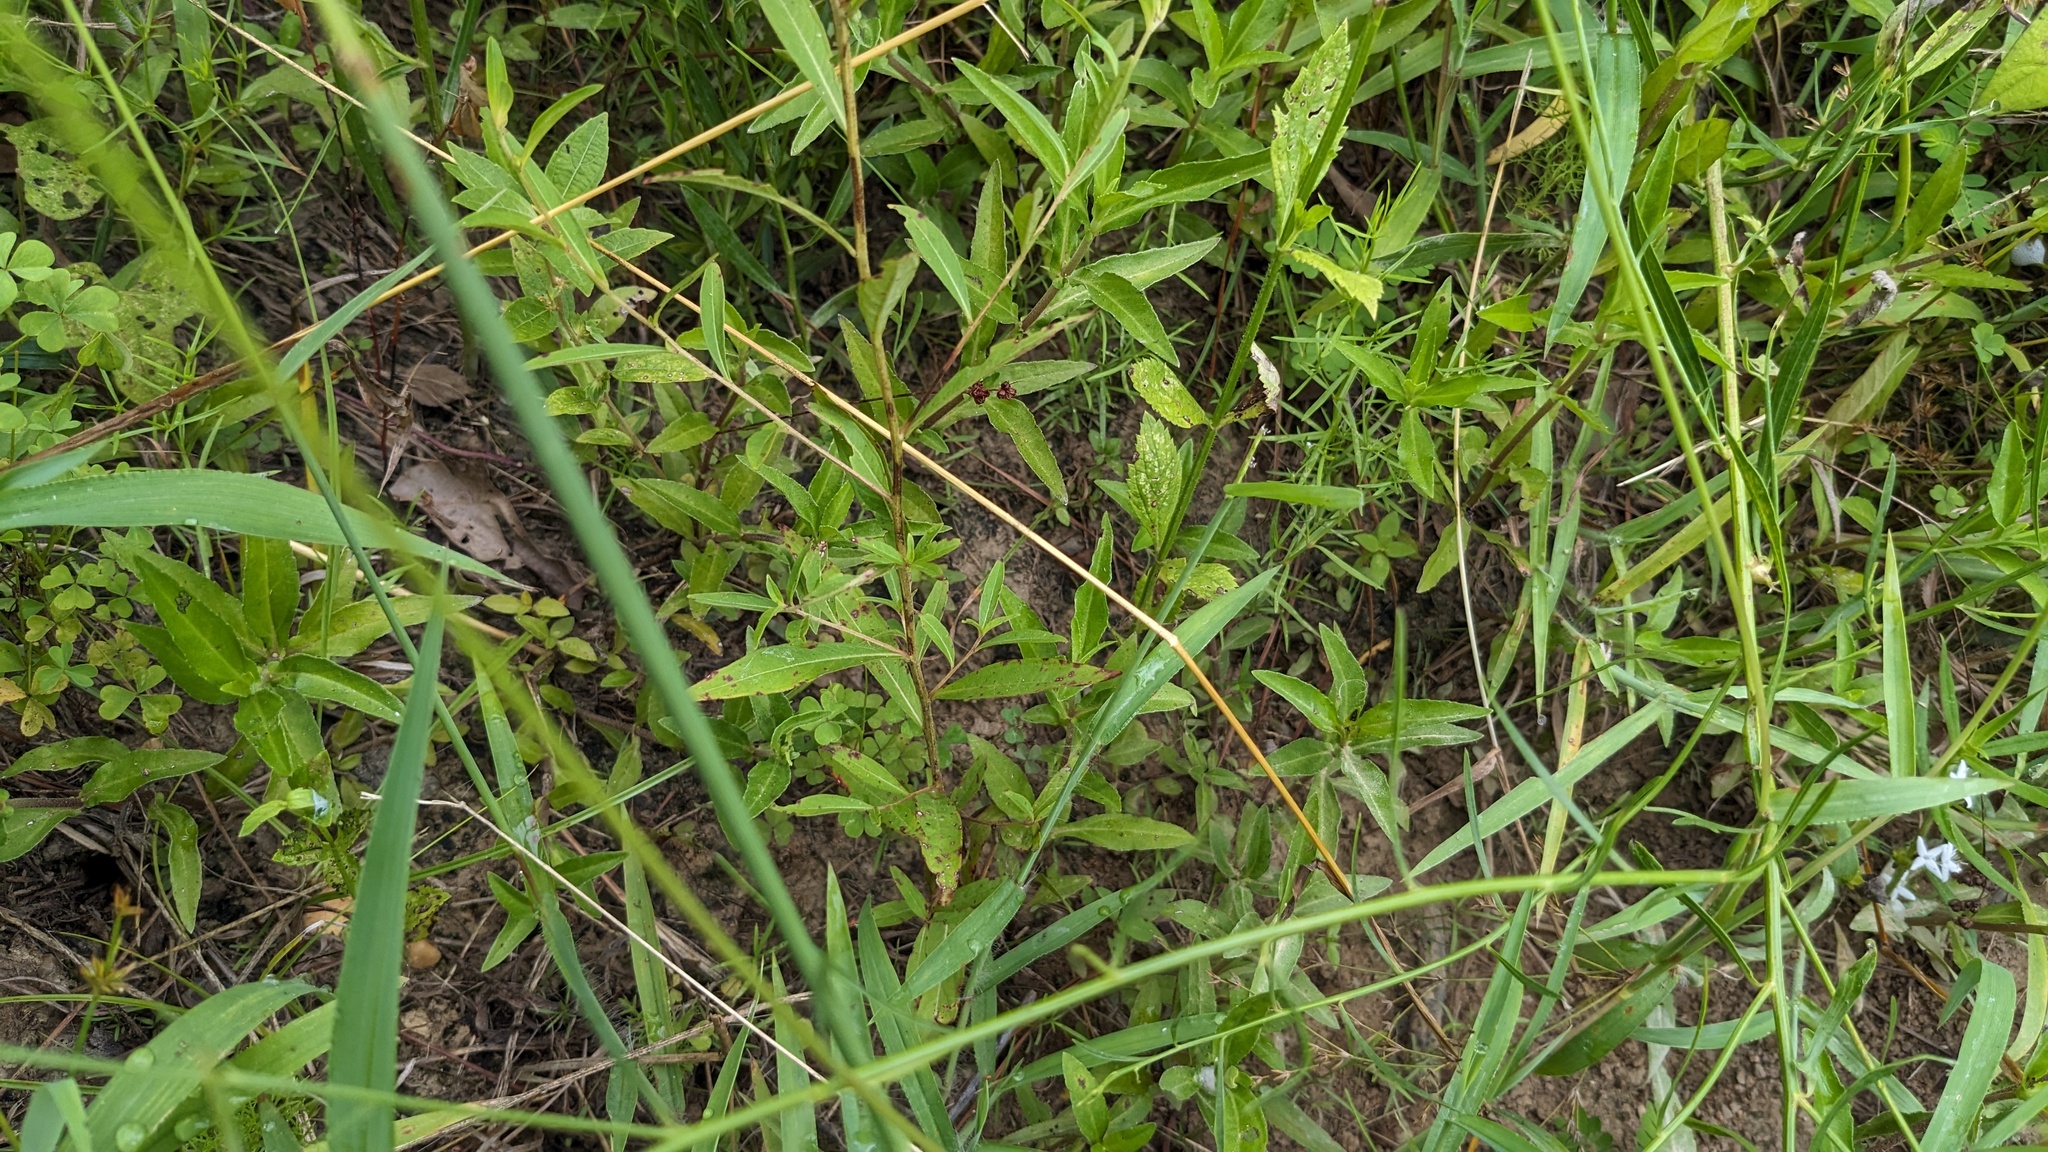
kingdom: Plantae
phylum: Tracheophyta
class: Magnoliopsida
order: Myrtales
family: Onagraceae
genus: Ludwigia
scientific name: Ludwigia alternifolia
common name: Rattlebox
